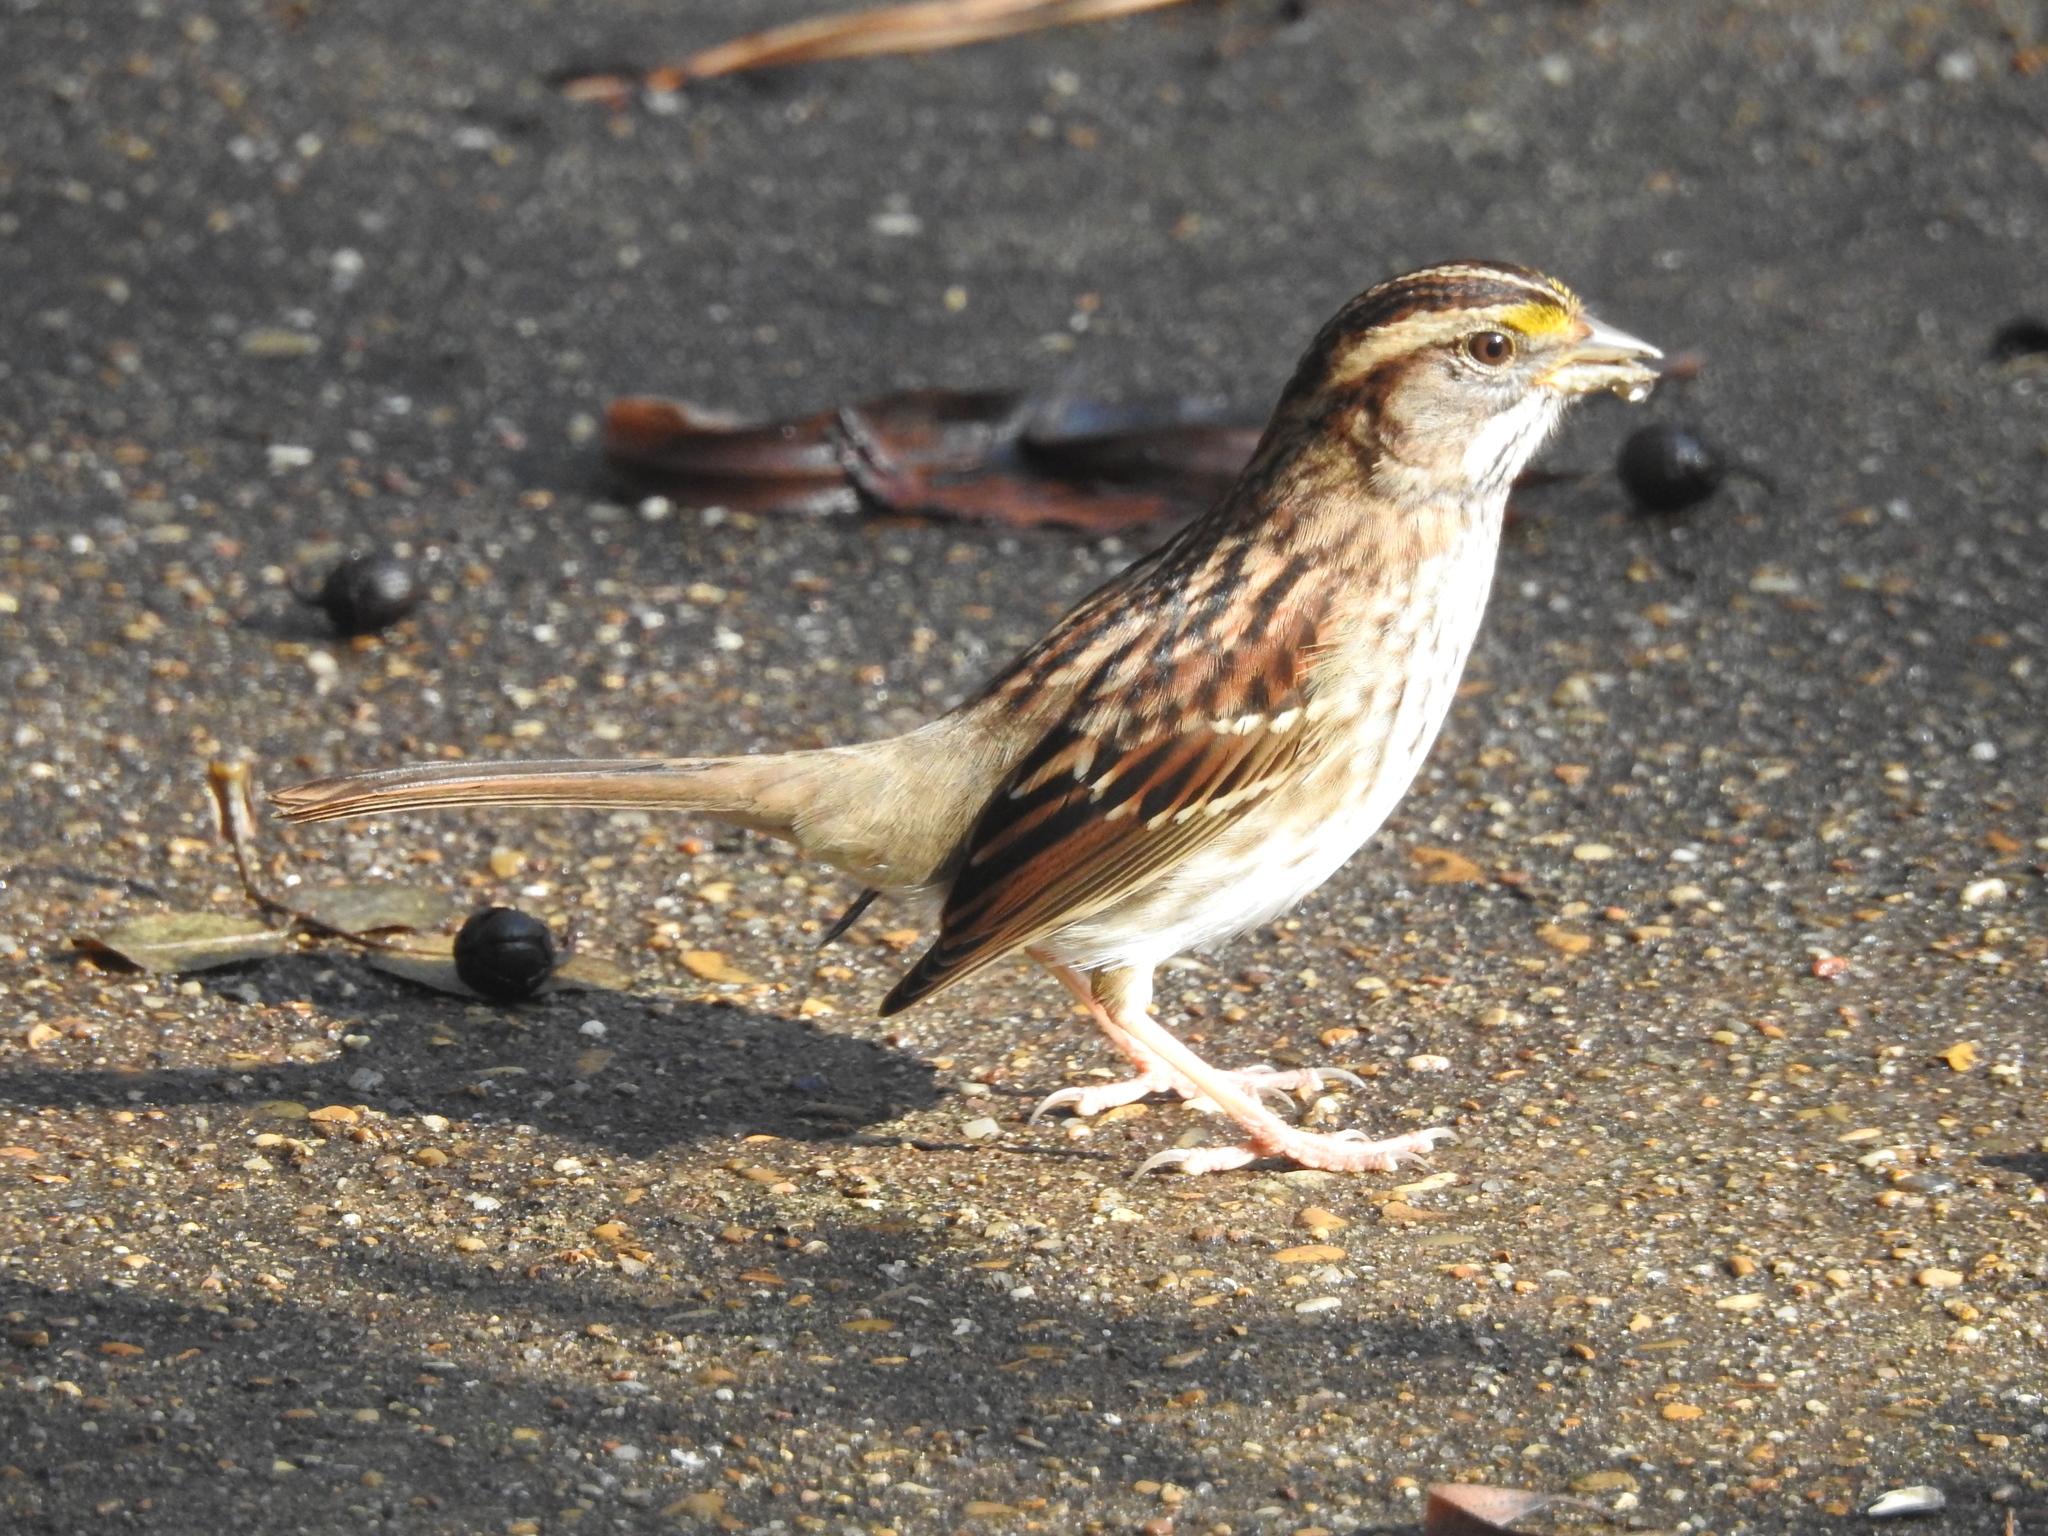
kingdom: Animalia
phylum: Chordata
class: Aves
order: Passeriformes
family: Passerellidae
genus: Zonotrichia
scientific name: Zonotrichia albicollis
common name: White-throated sparrow
